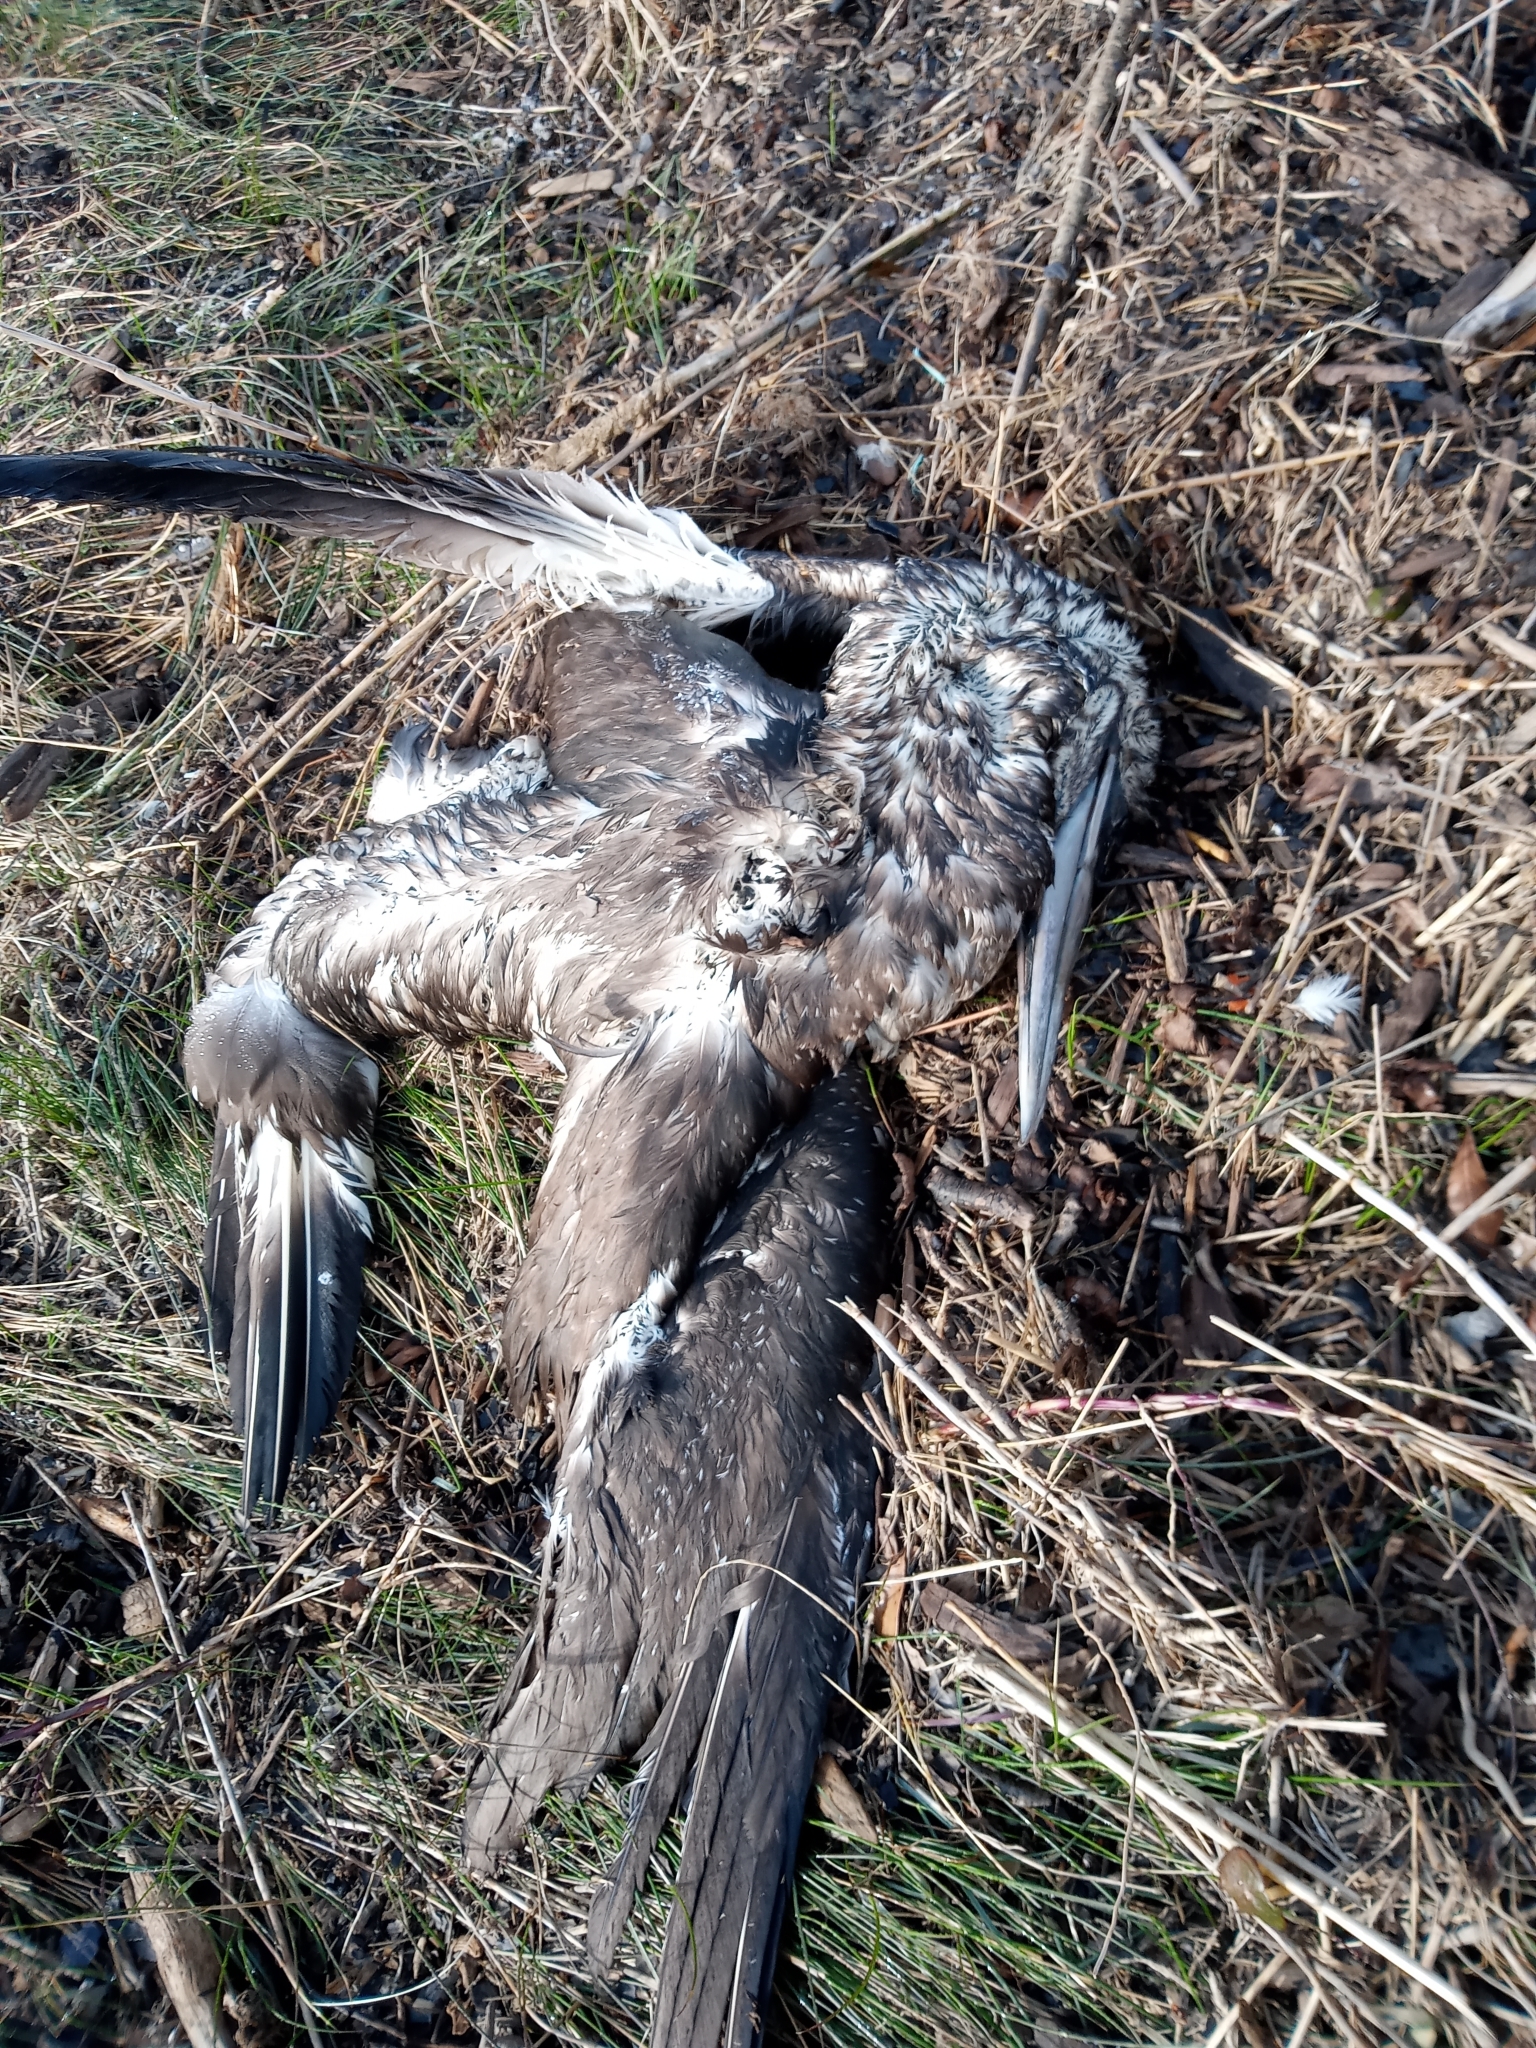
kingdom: Animalia
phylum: Chordata
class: Aves
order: Suliformes
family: Sulidae
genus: Morus
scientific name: Morus bassanus
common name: Northern gannet
